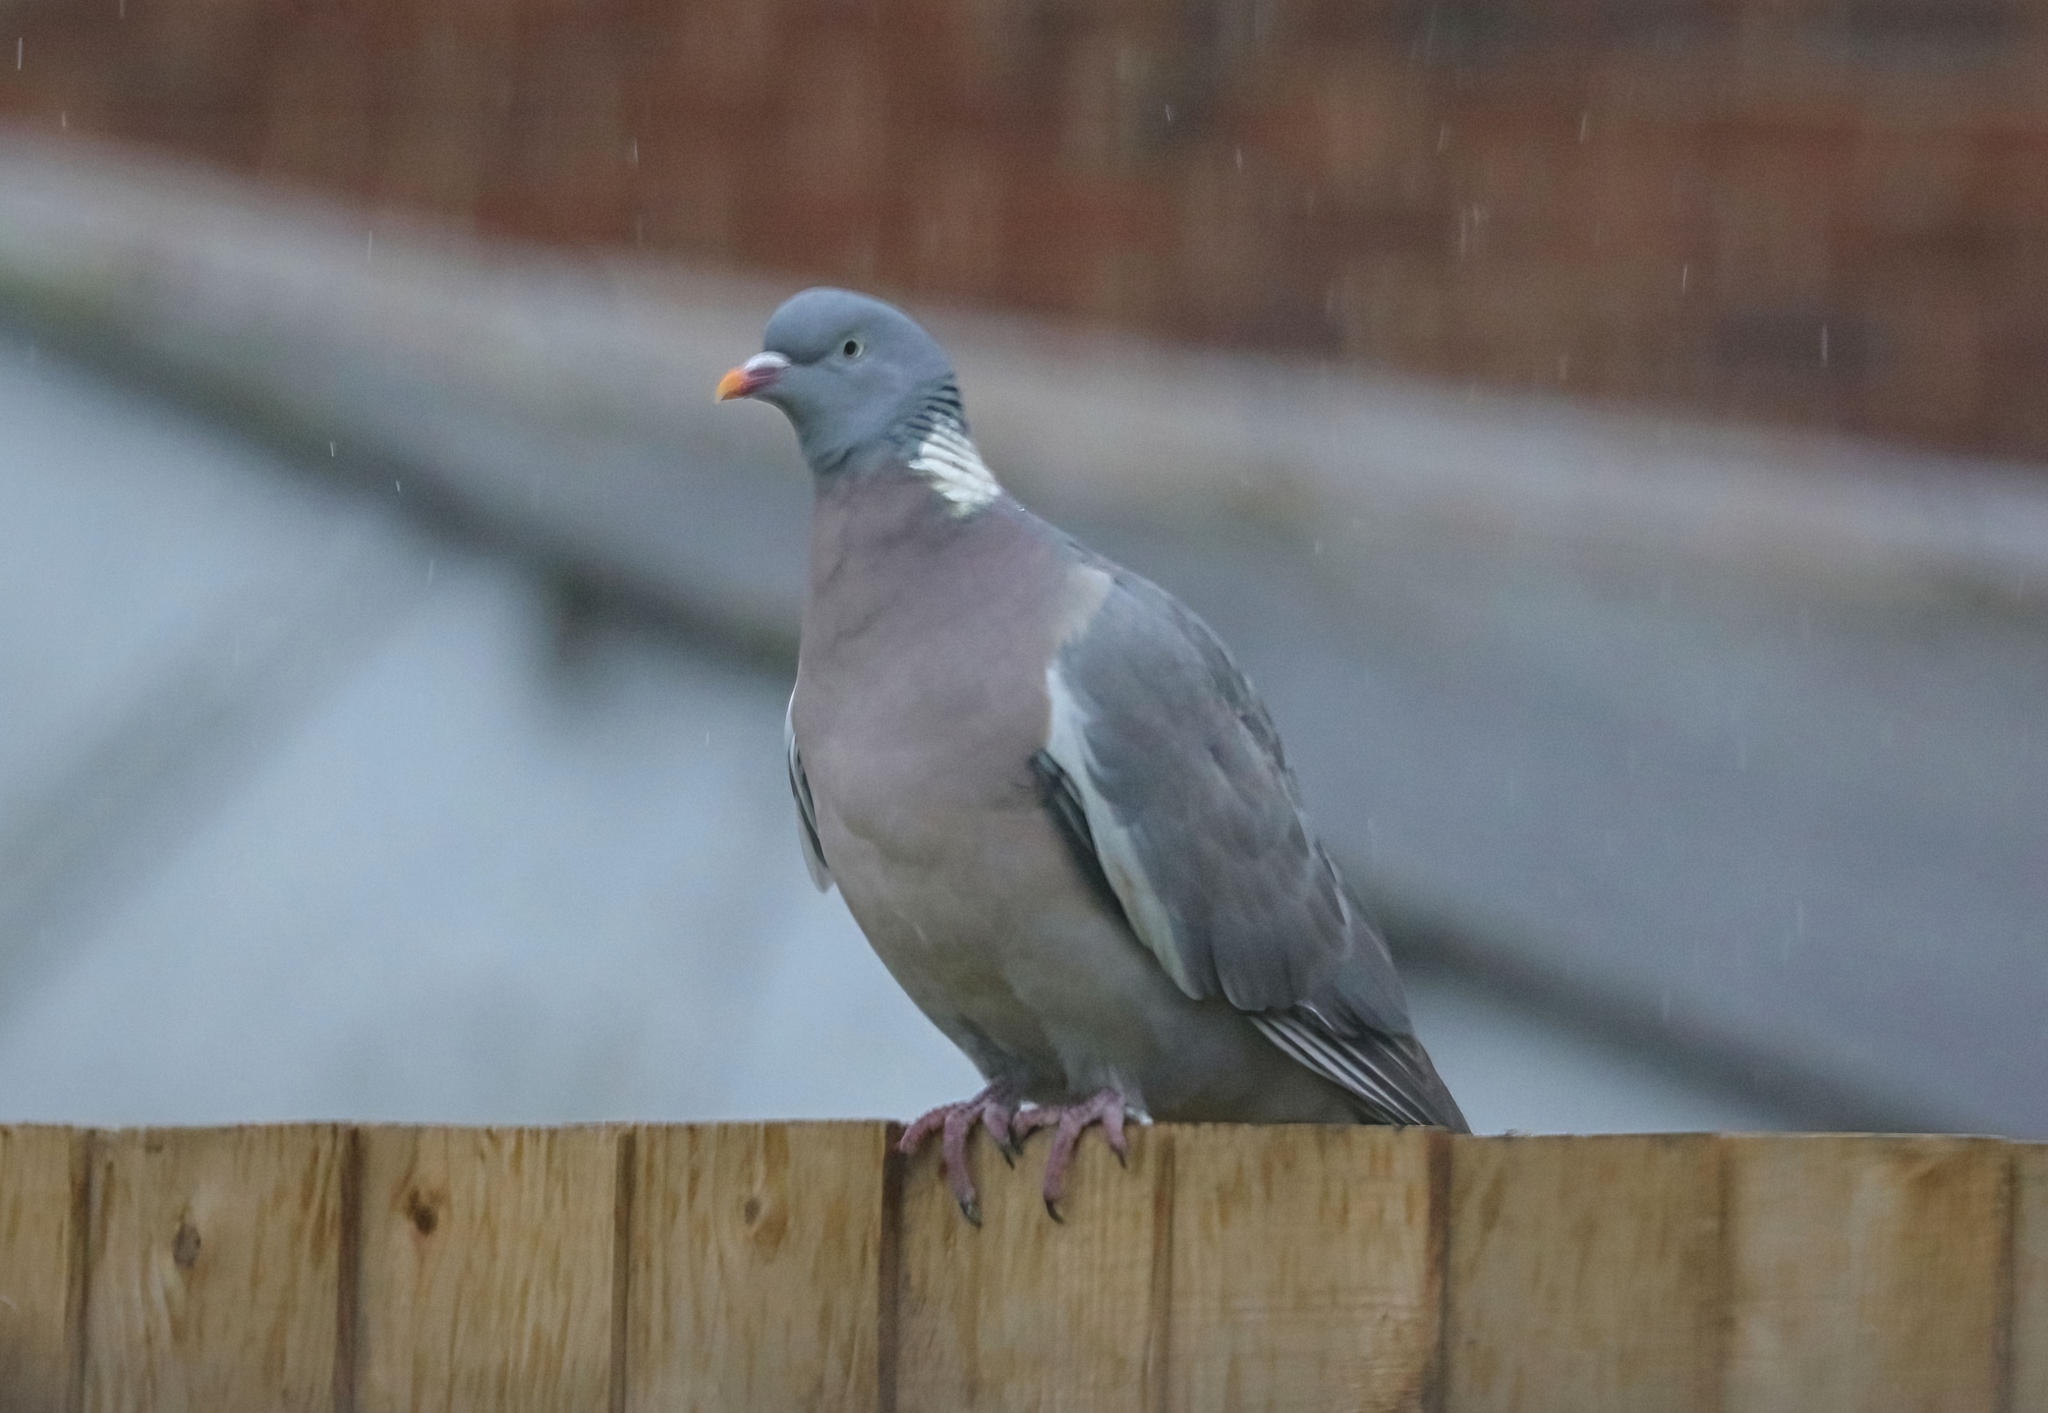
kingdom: Animalia
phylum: Chordata
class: Aves
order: Columbiformes
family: Columbidae
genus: Columba
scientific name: Columba palumbus
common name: Common wood pigeon
